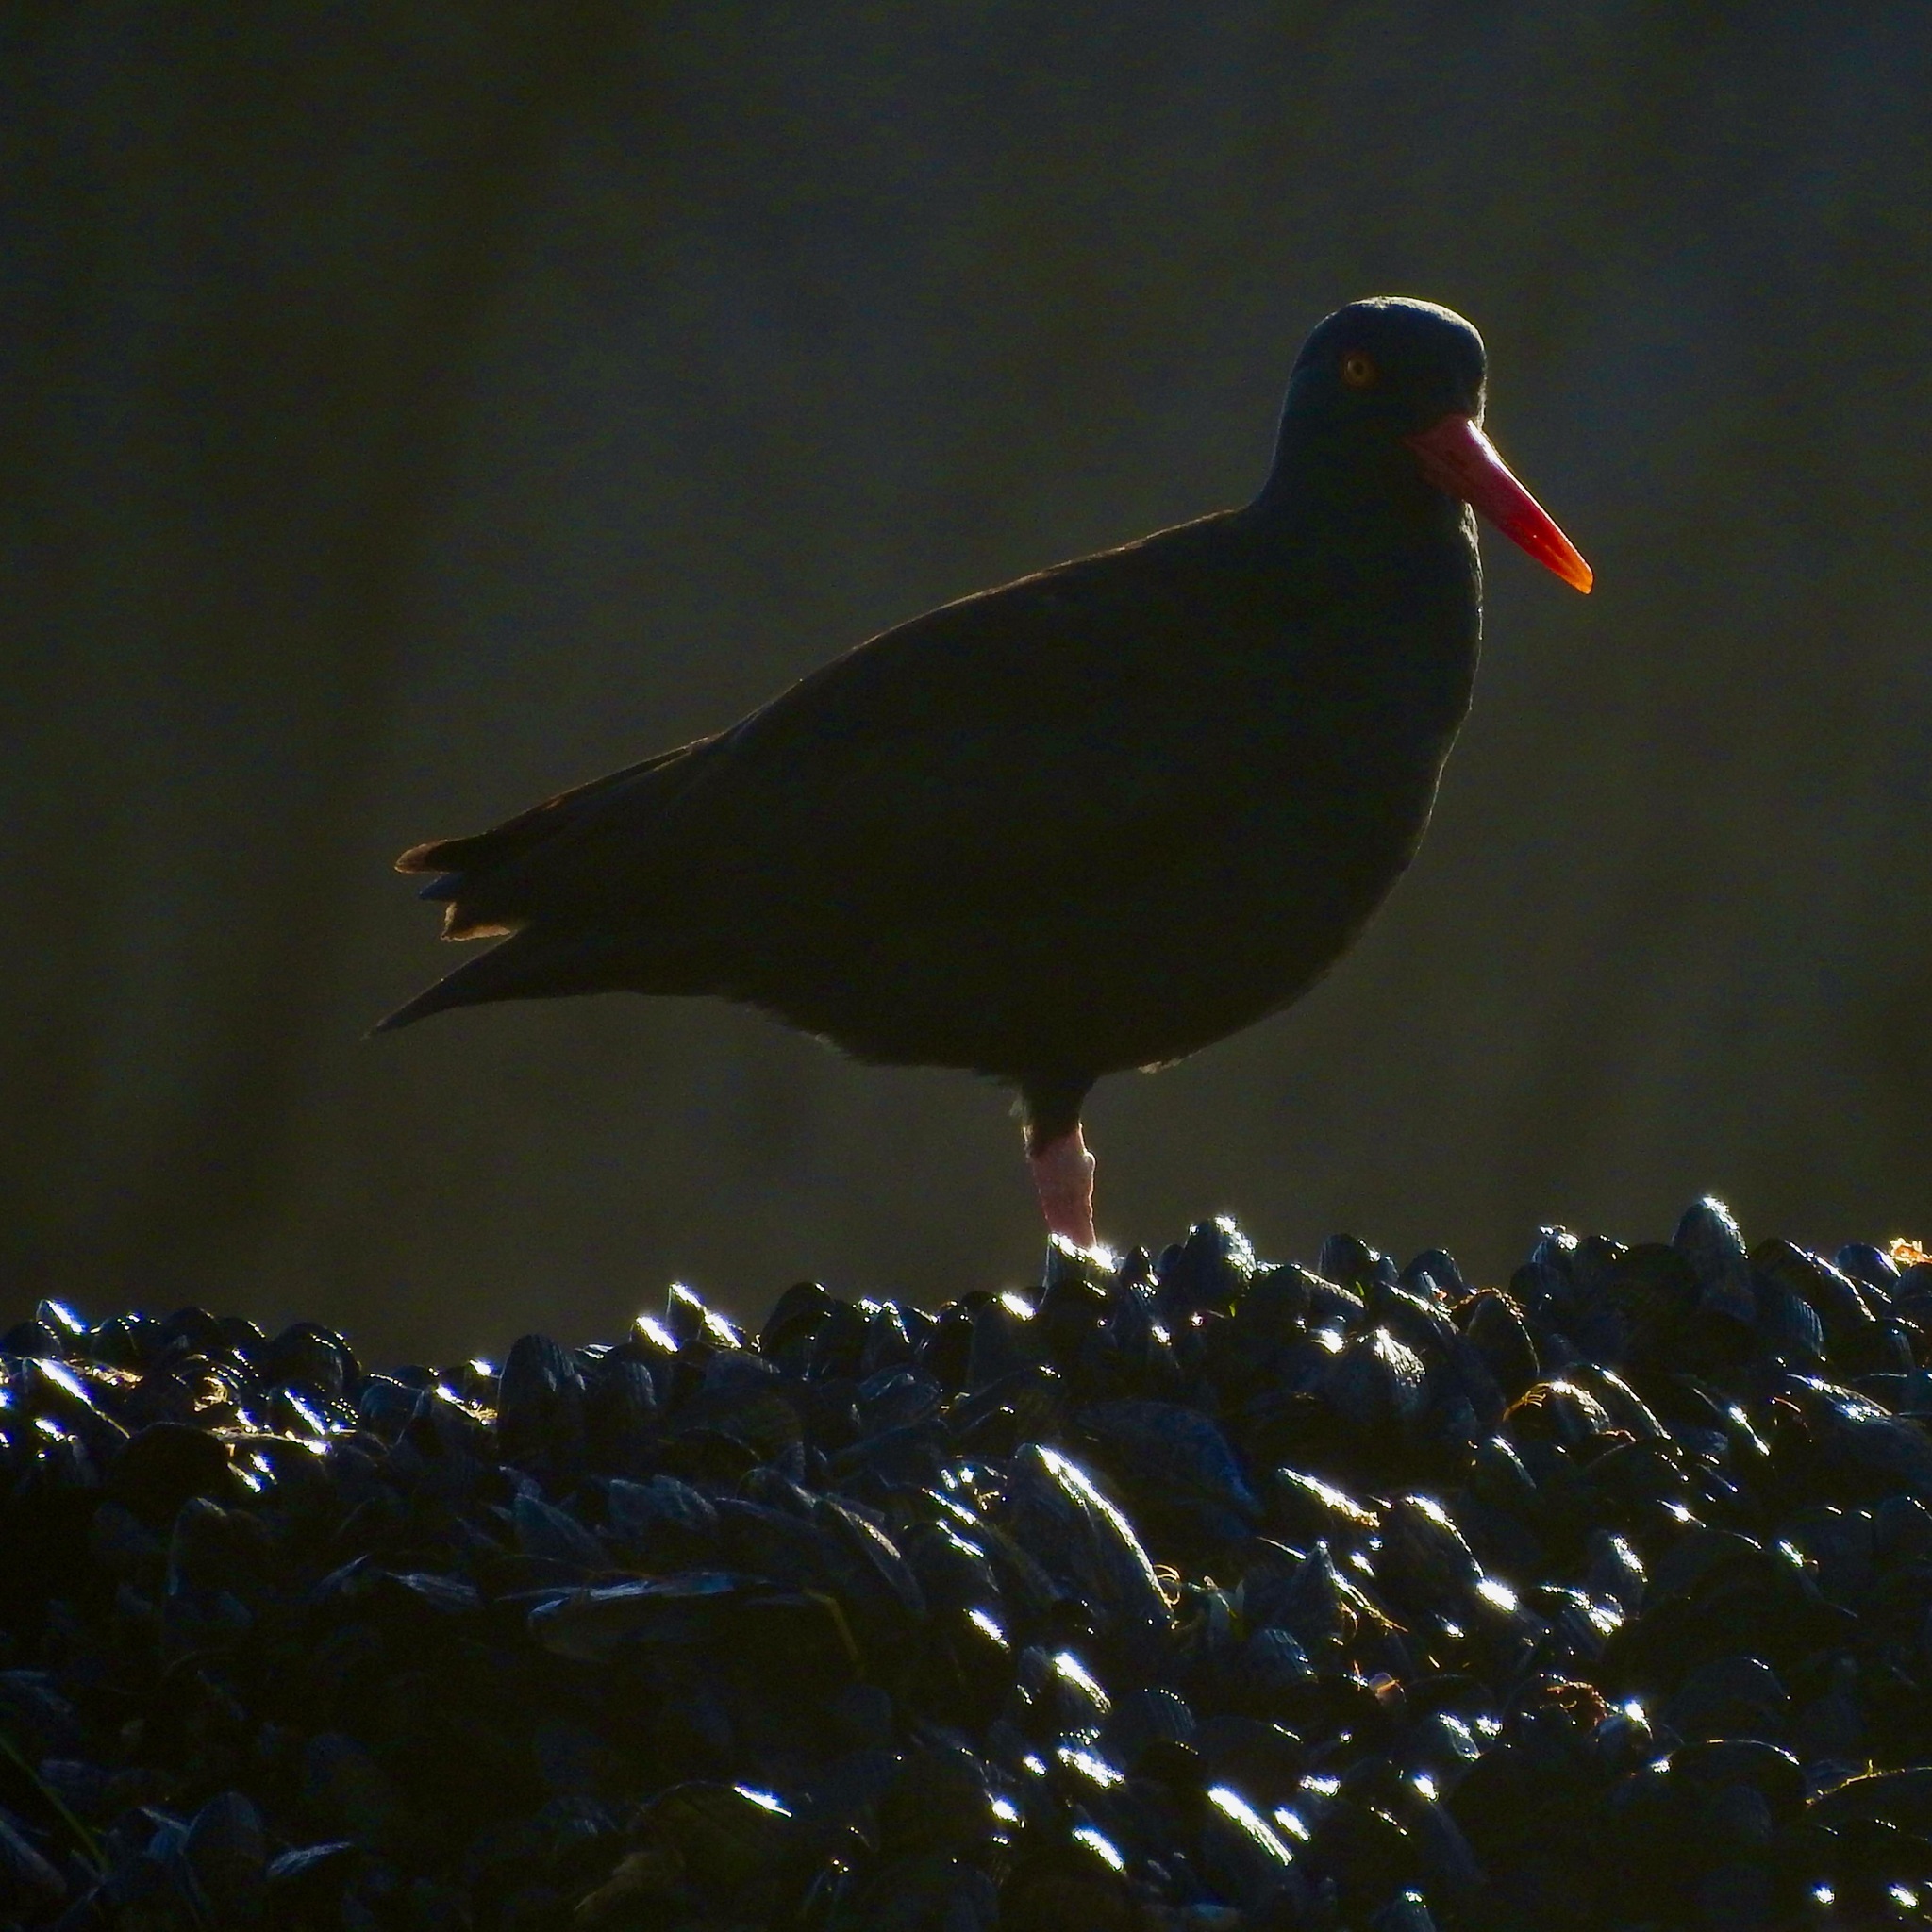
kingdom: Animalia
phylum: Chordata
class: Aves
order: Charadriiformes
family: Haematopodidae
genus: Haematopus
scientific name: Haematopus bachmani
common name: Black oystercatcher
